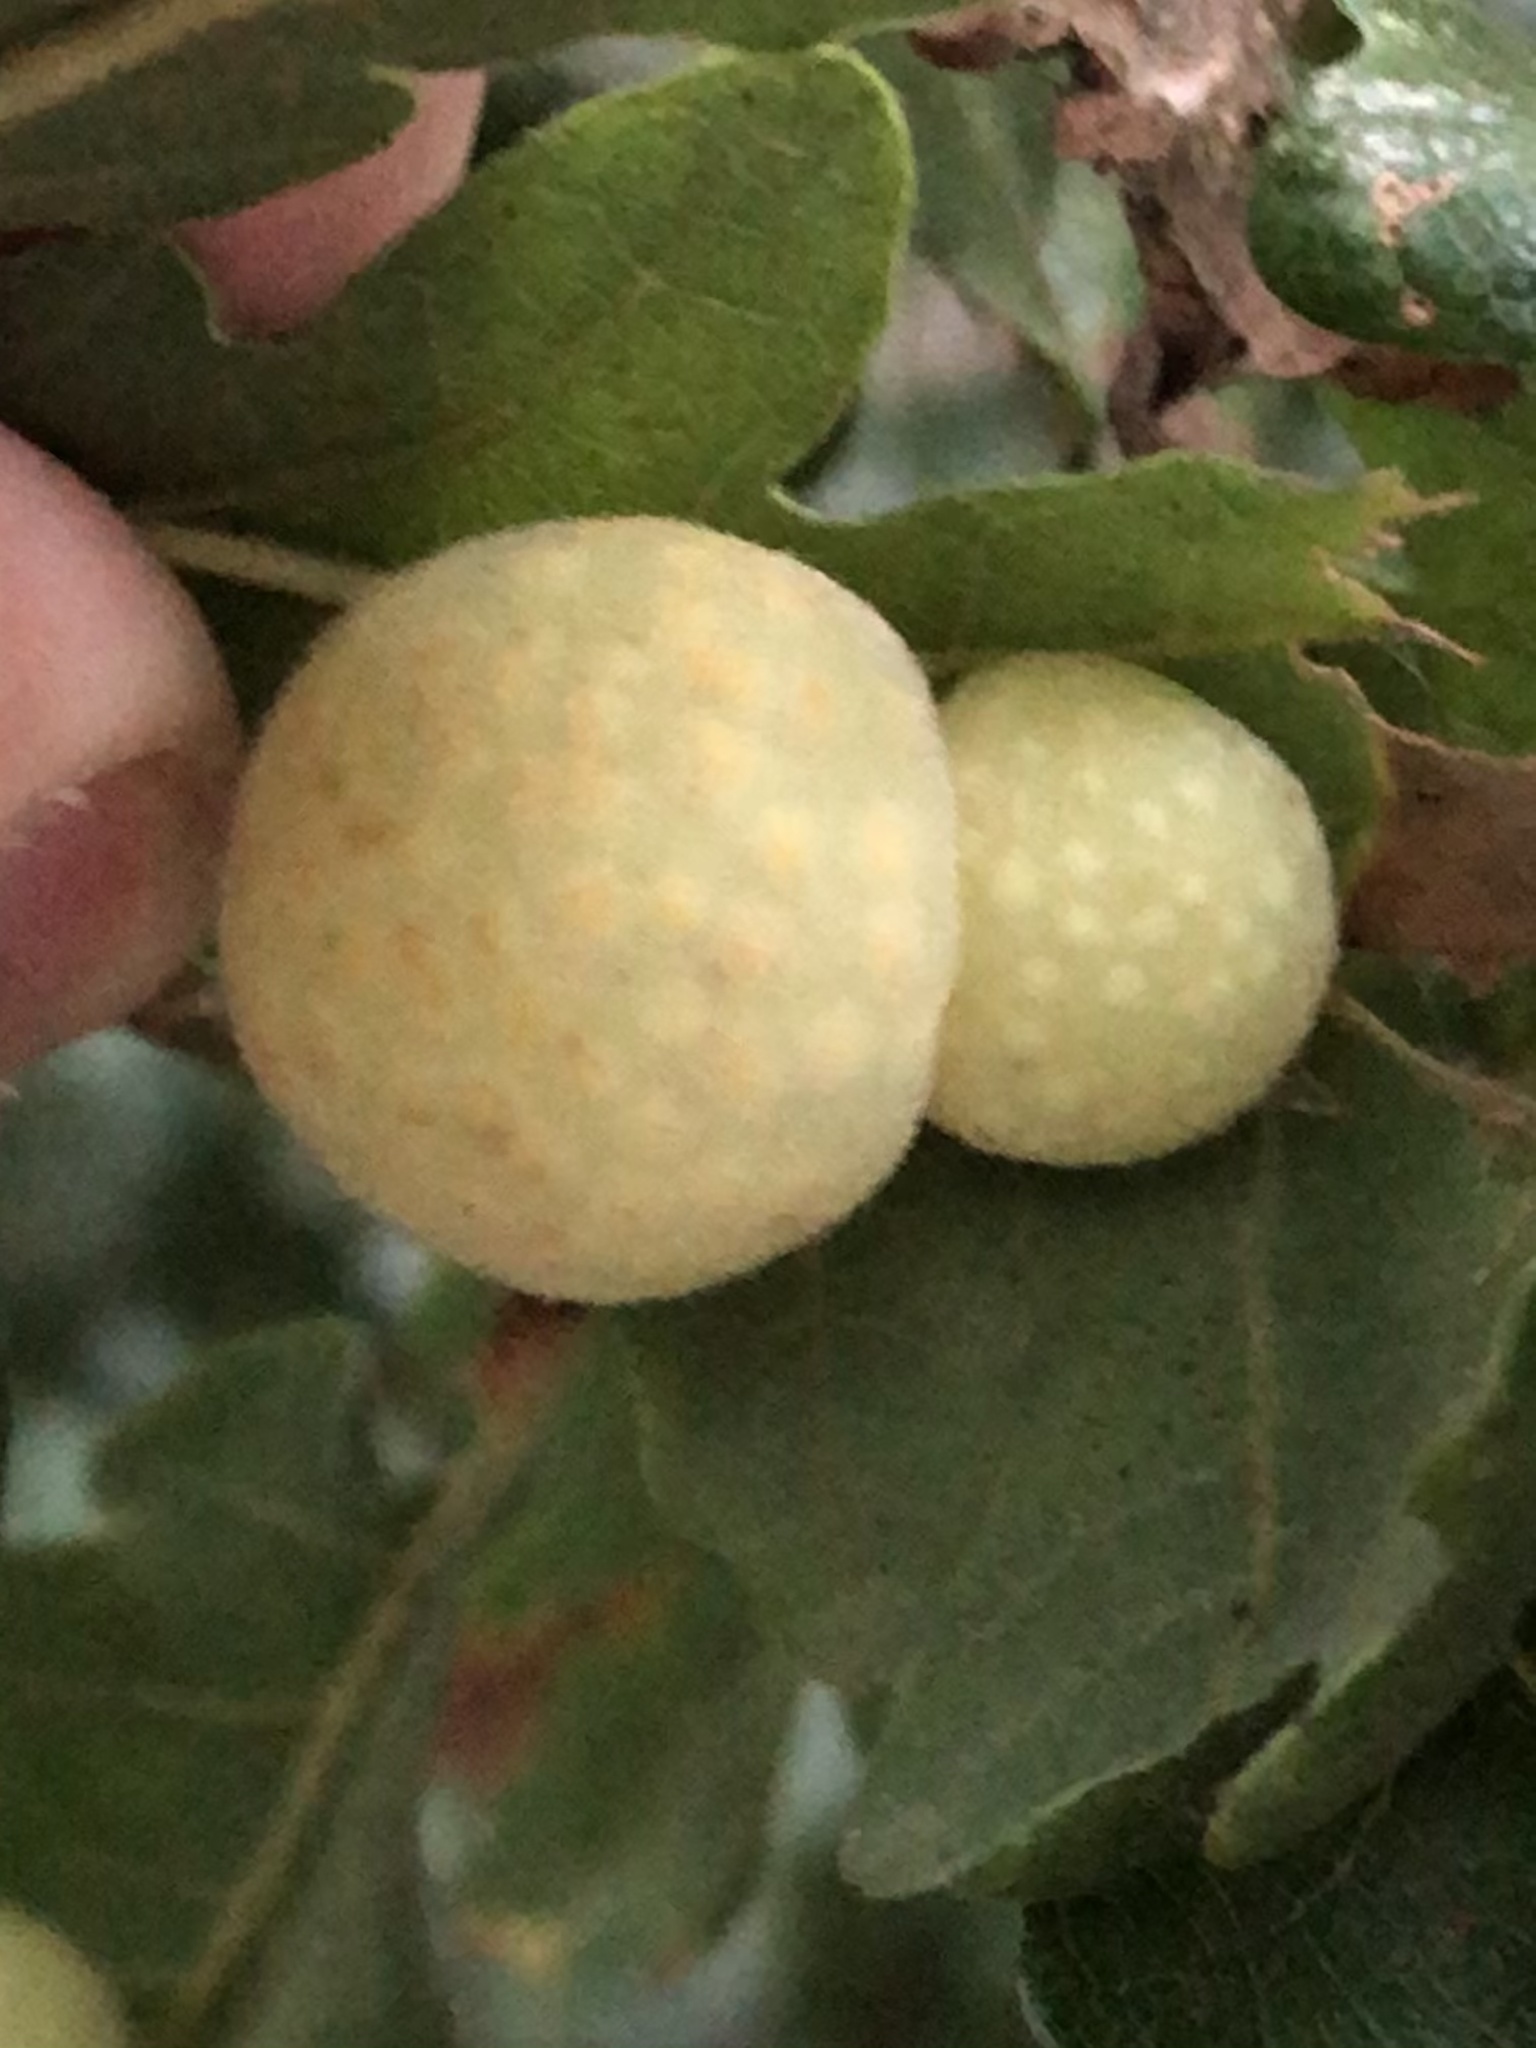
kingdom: Animalia
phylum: Arthropoda
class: Insecta
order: Hymenoptera
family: Cynipidae
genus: Cynips
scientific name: Cynips
